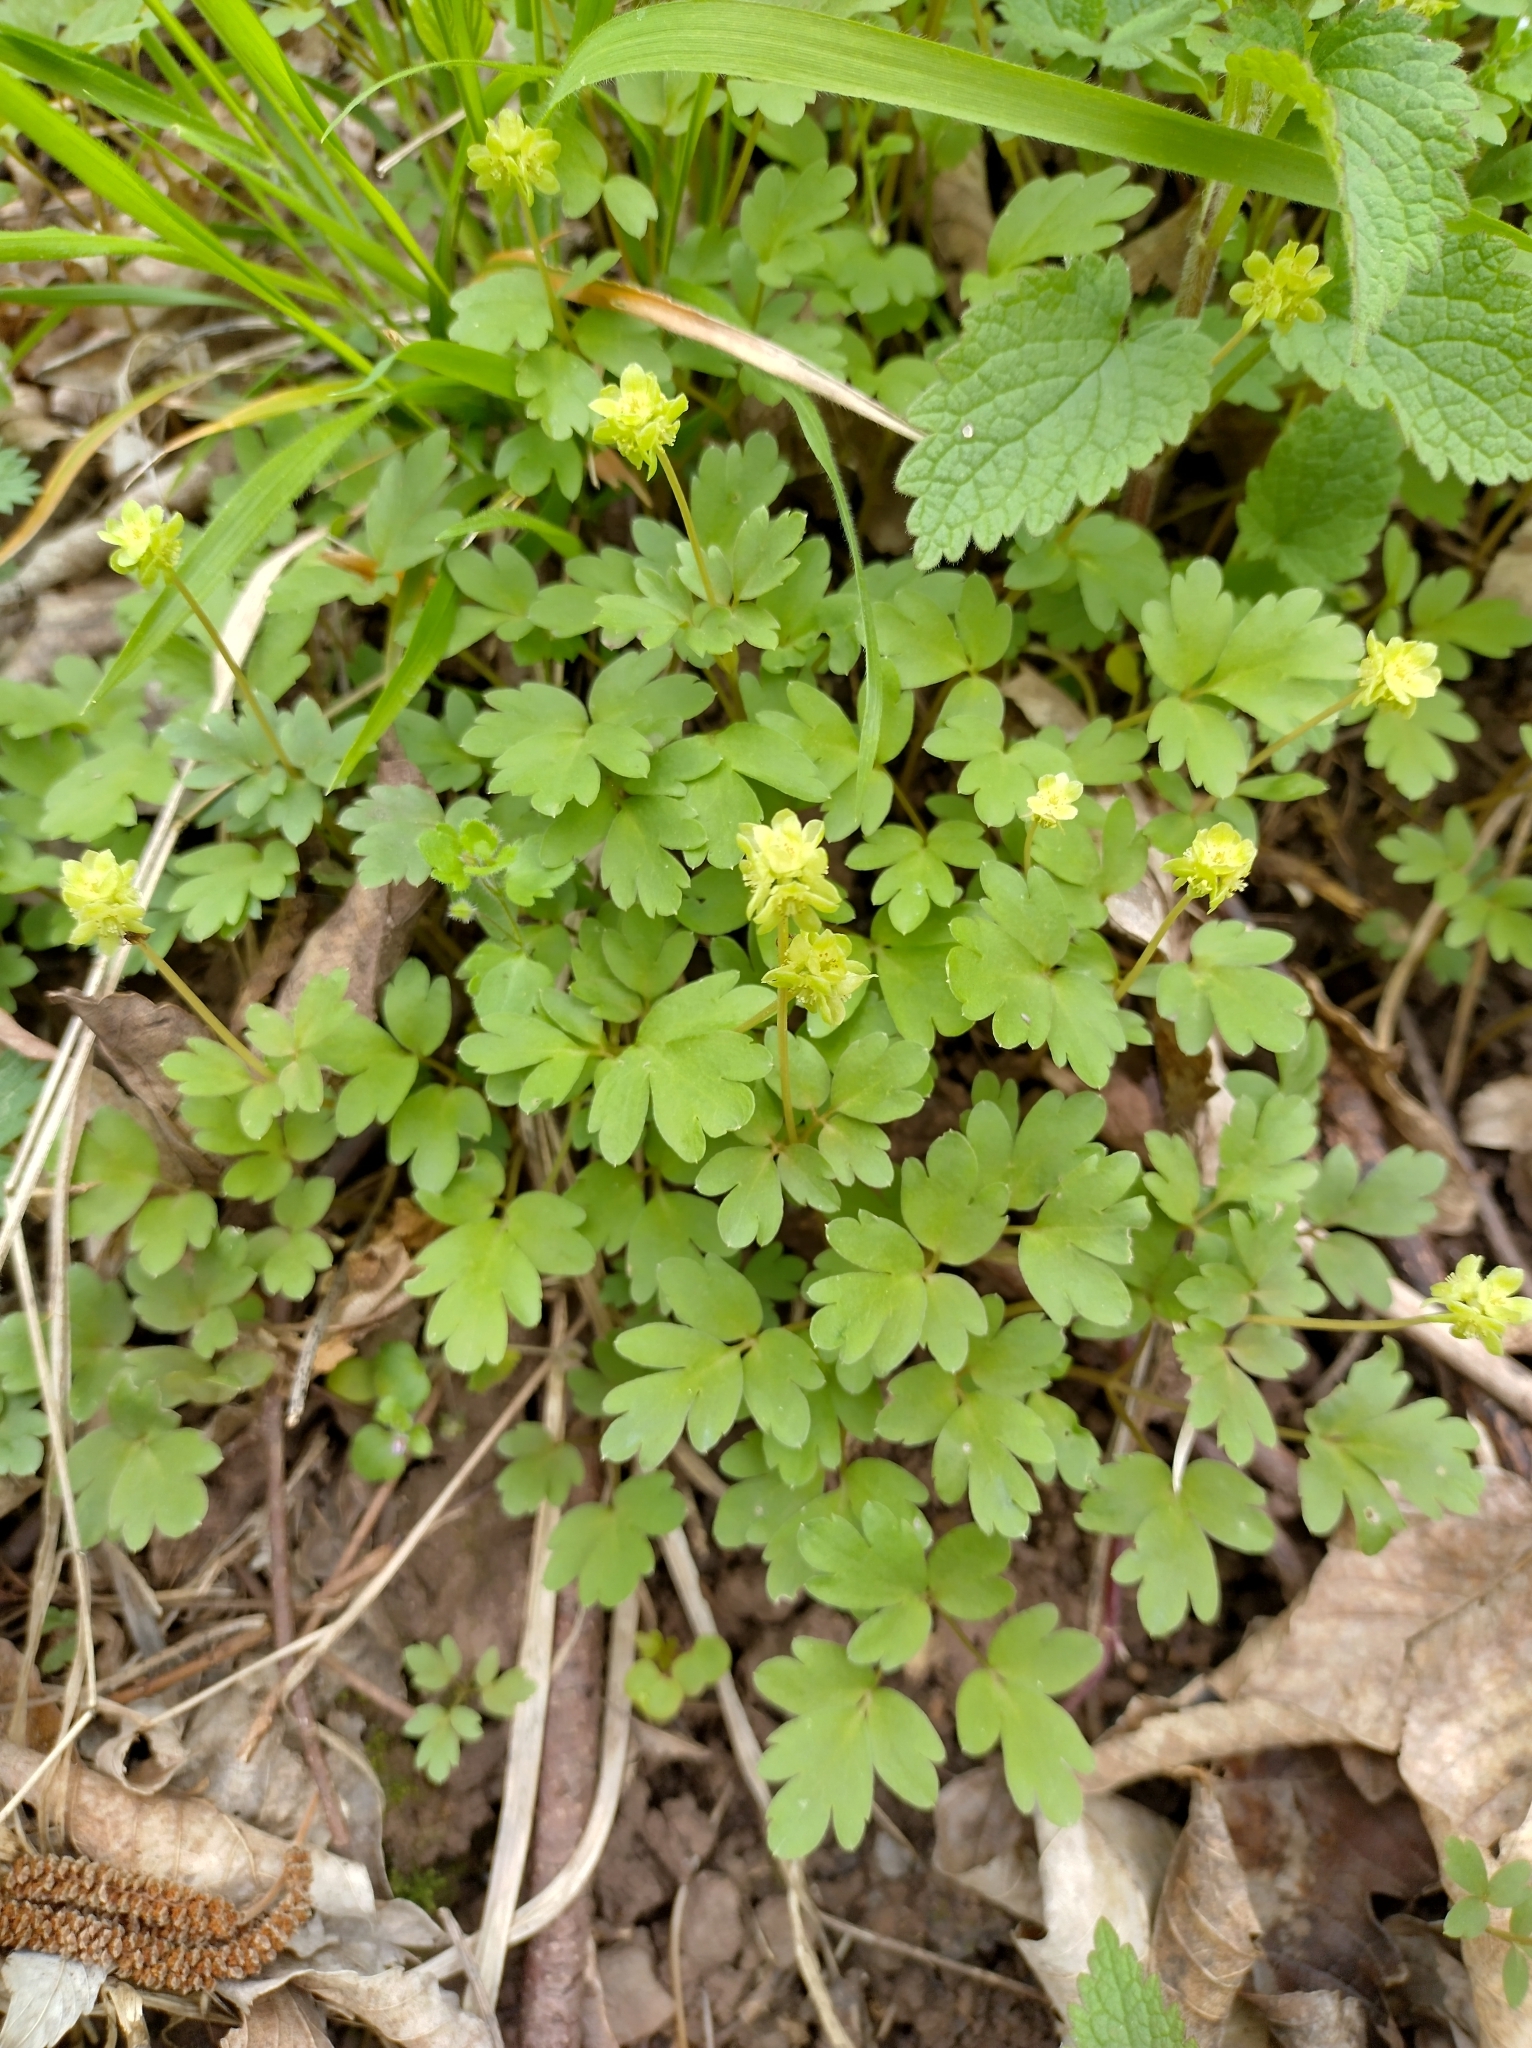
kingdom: Plantae
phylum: Tracheophyta
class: Magnoliopsida
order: Dipsacales
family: Viburnaceae
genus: Adoxa
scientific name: Adoxa moschatellina
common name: Moschatel
